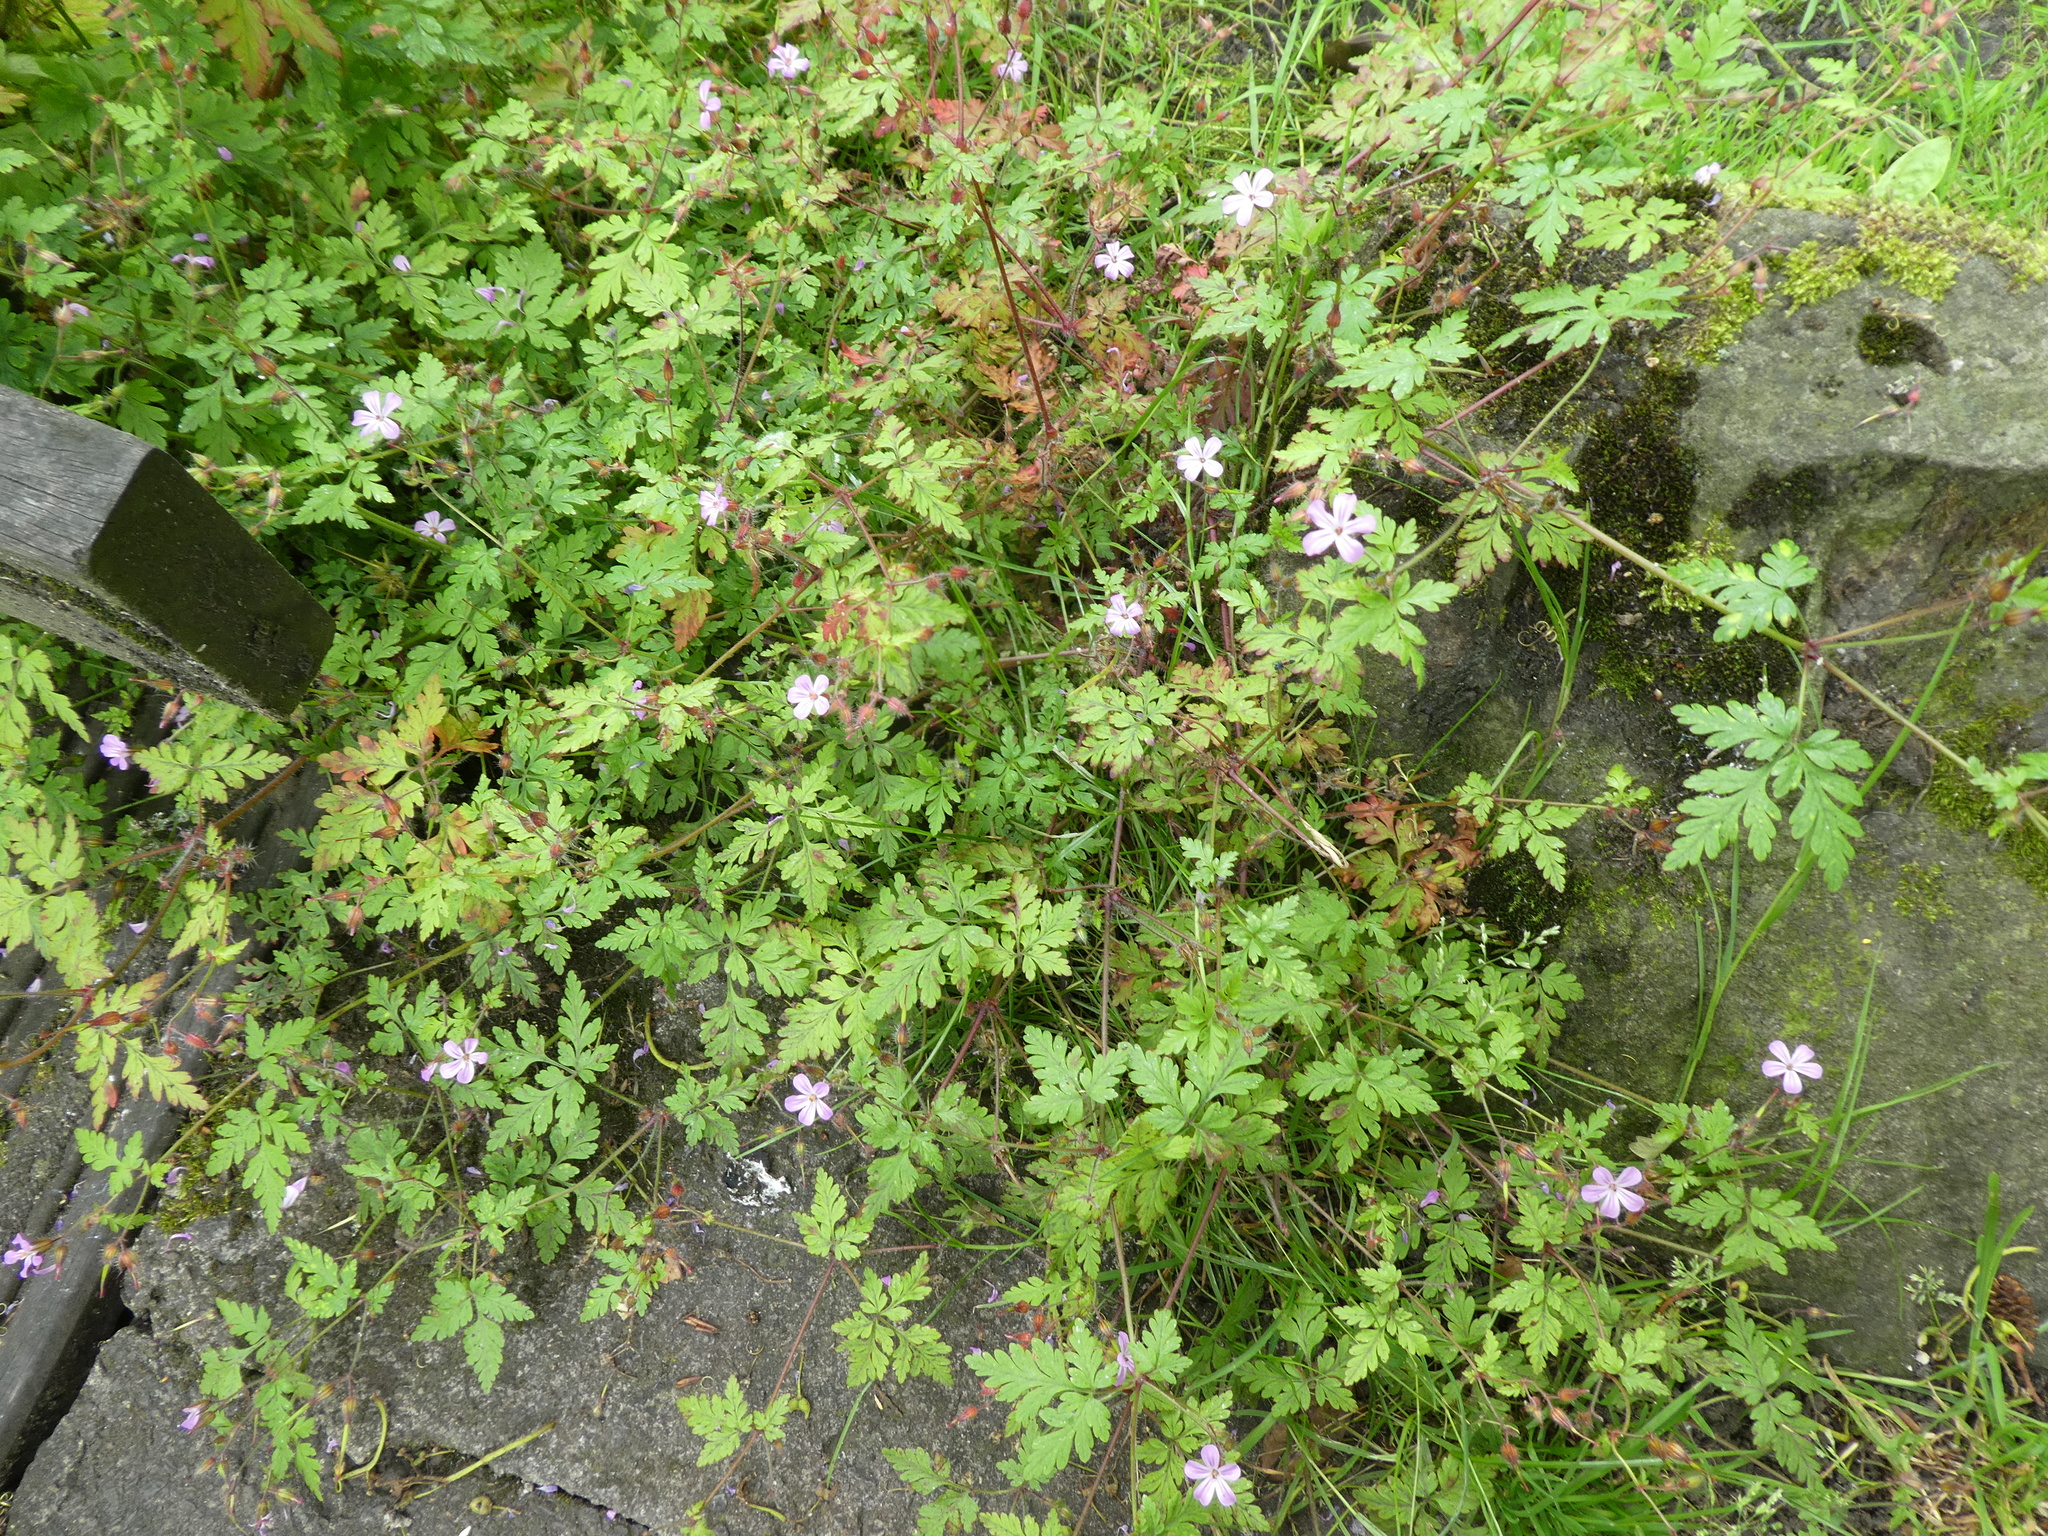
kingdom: Plantae
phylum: Tracheophyta
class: Magnoliopsida
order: Geraniales
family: Geraniaceae
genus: Geranium
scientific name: Geranium robertianum
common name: Herb-robert
